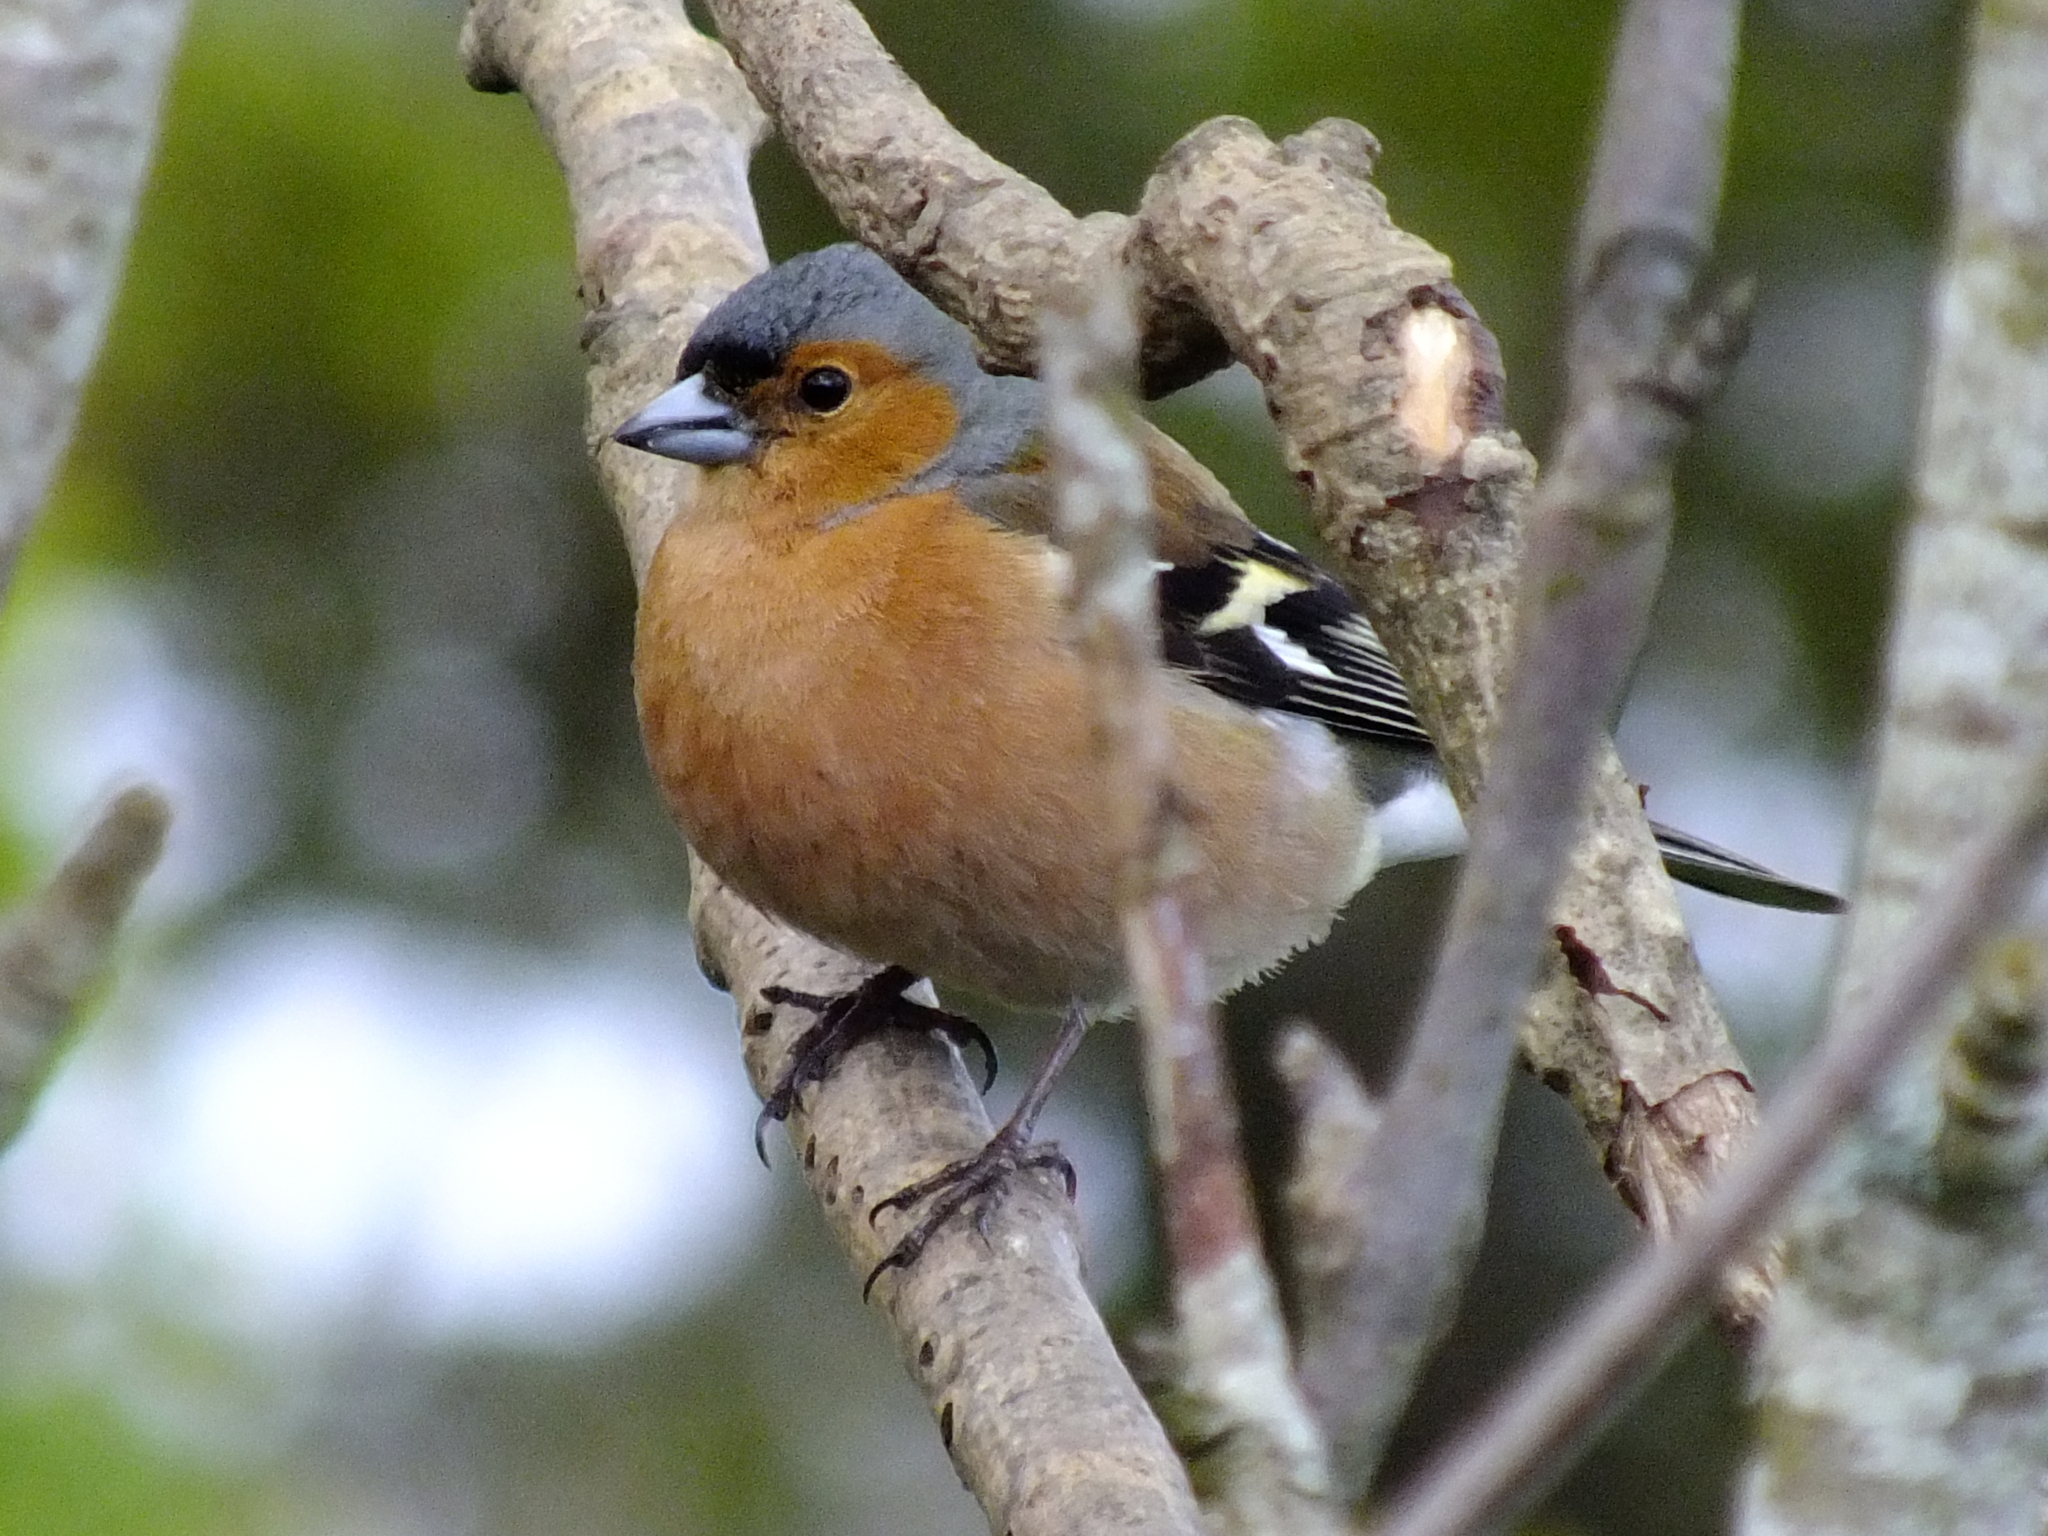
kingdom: Animalia
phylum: Chordata
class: Aves
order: Passeriformes
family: Fringillidae
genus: Fringilla
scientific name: Fringilla coelebs
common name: Common chaffinch
